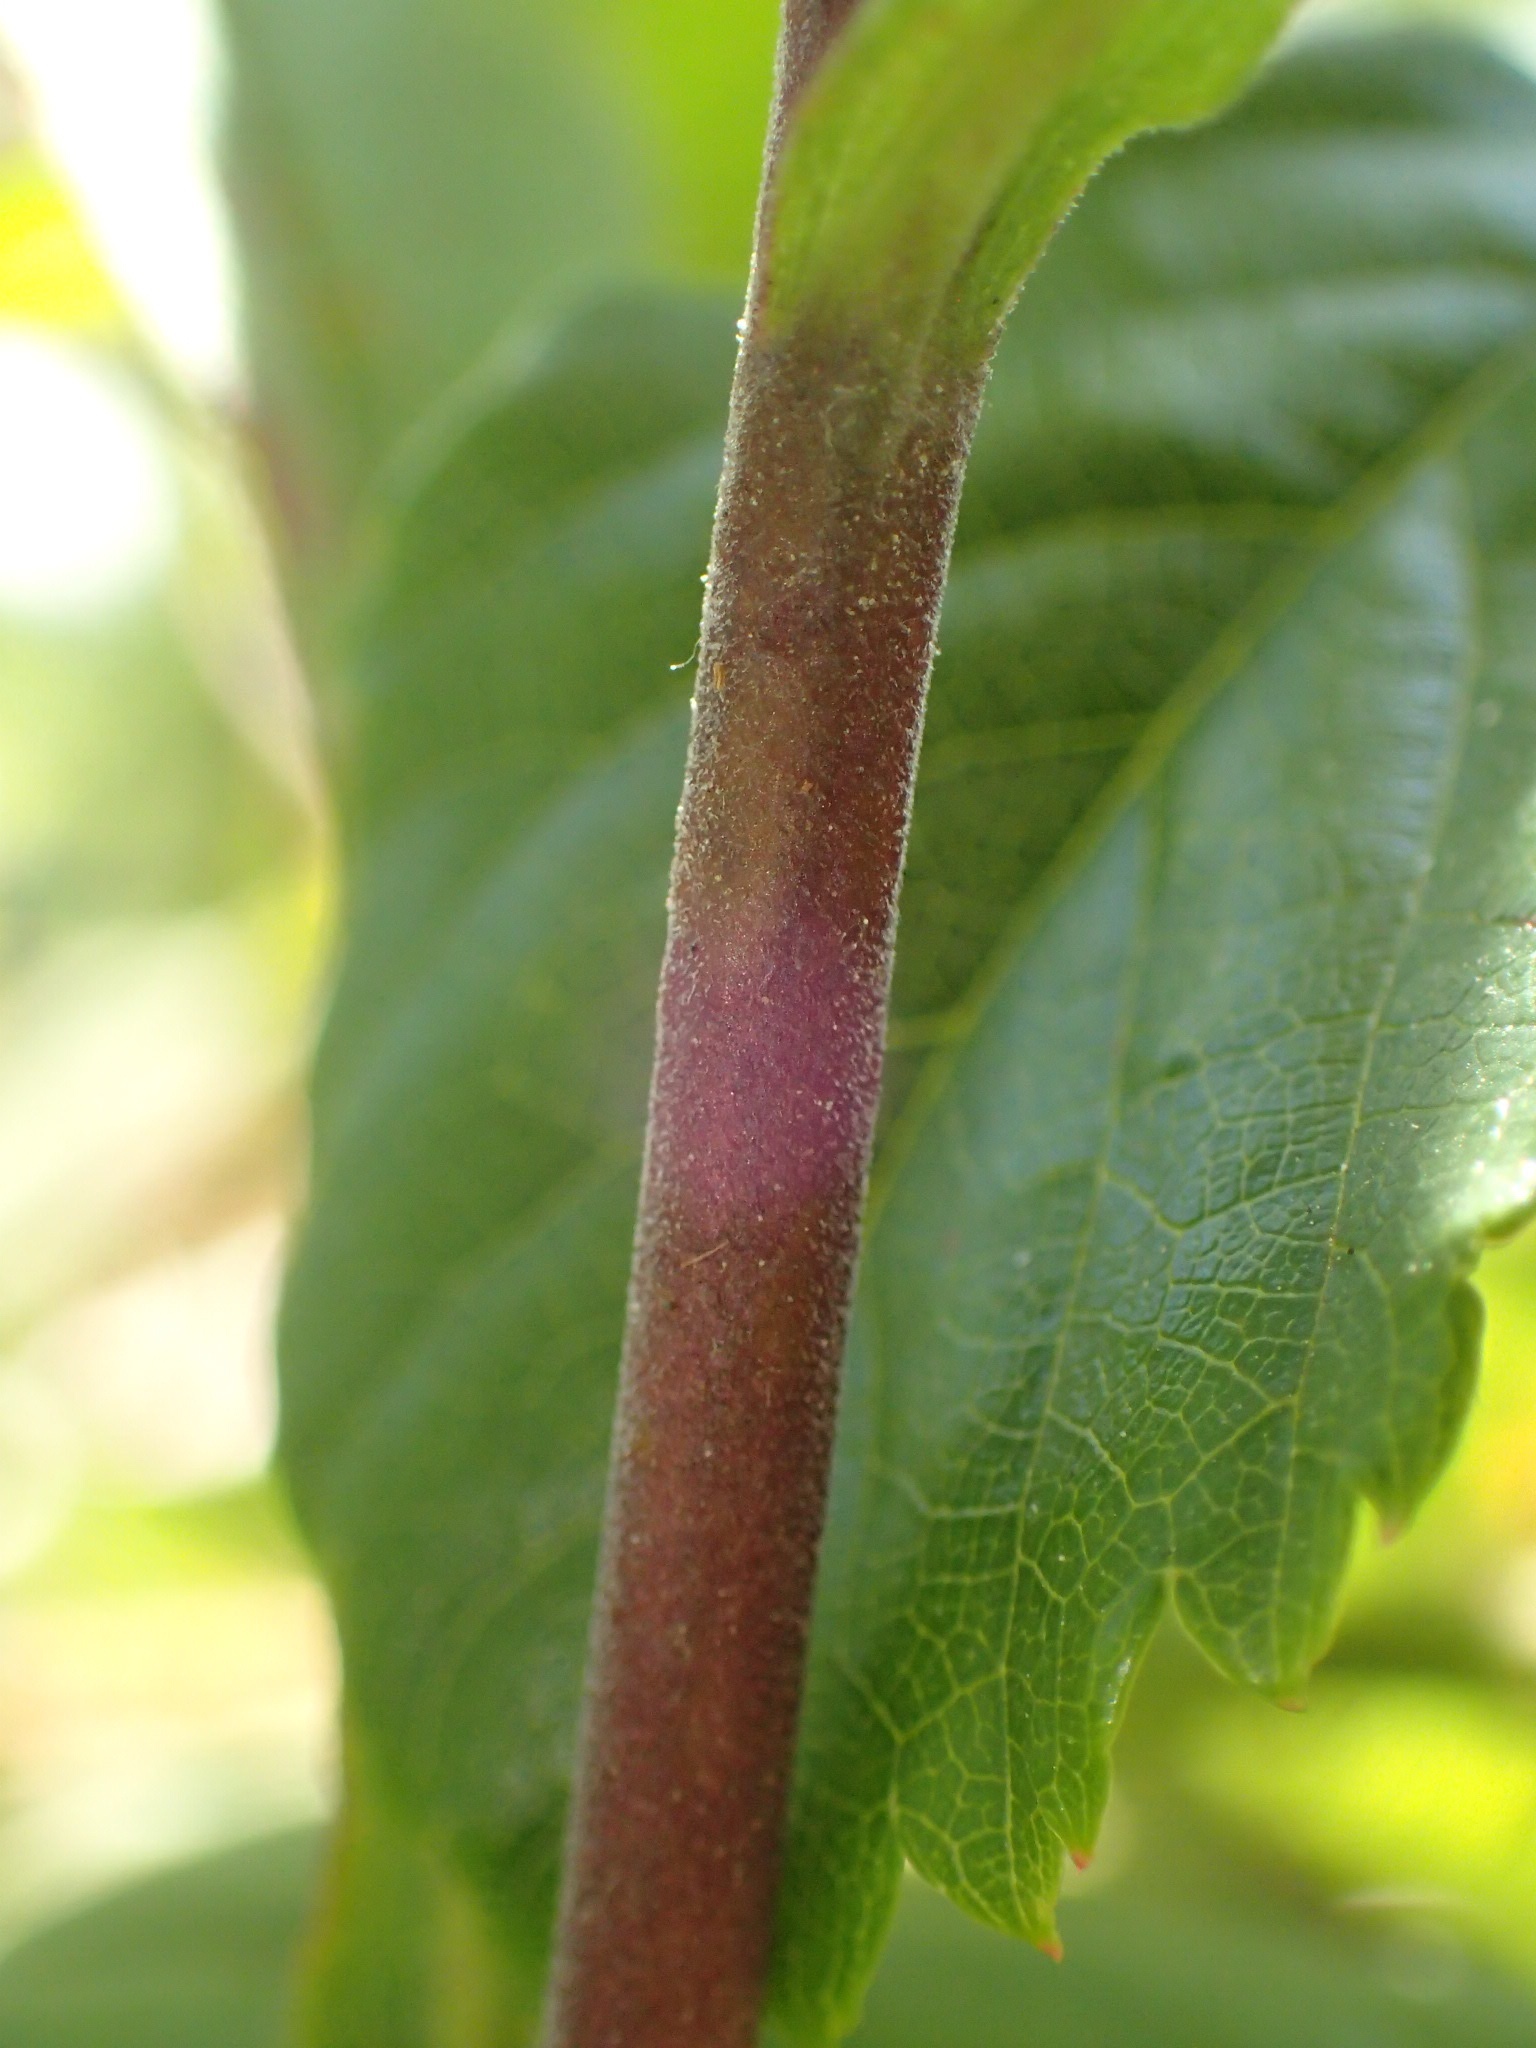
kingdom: Plantae
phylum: Tracheophyta
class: Magnoliopsida
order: Asterales
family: Asteraceae
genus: Solidago
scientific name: Solidago puberula
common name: Downy goldenrod
